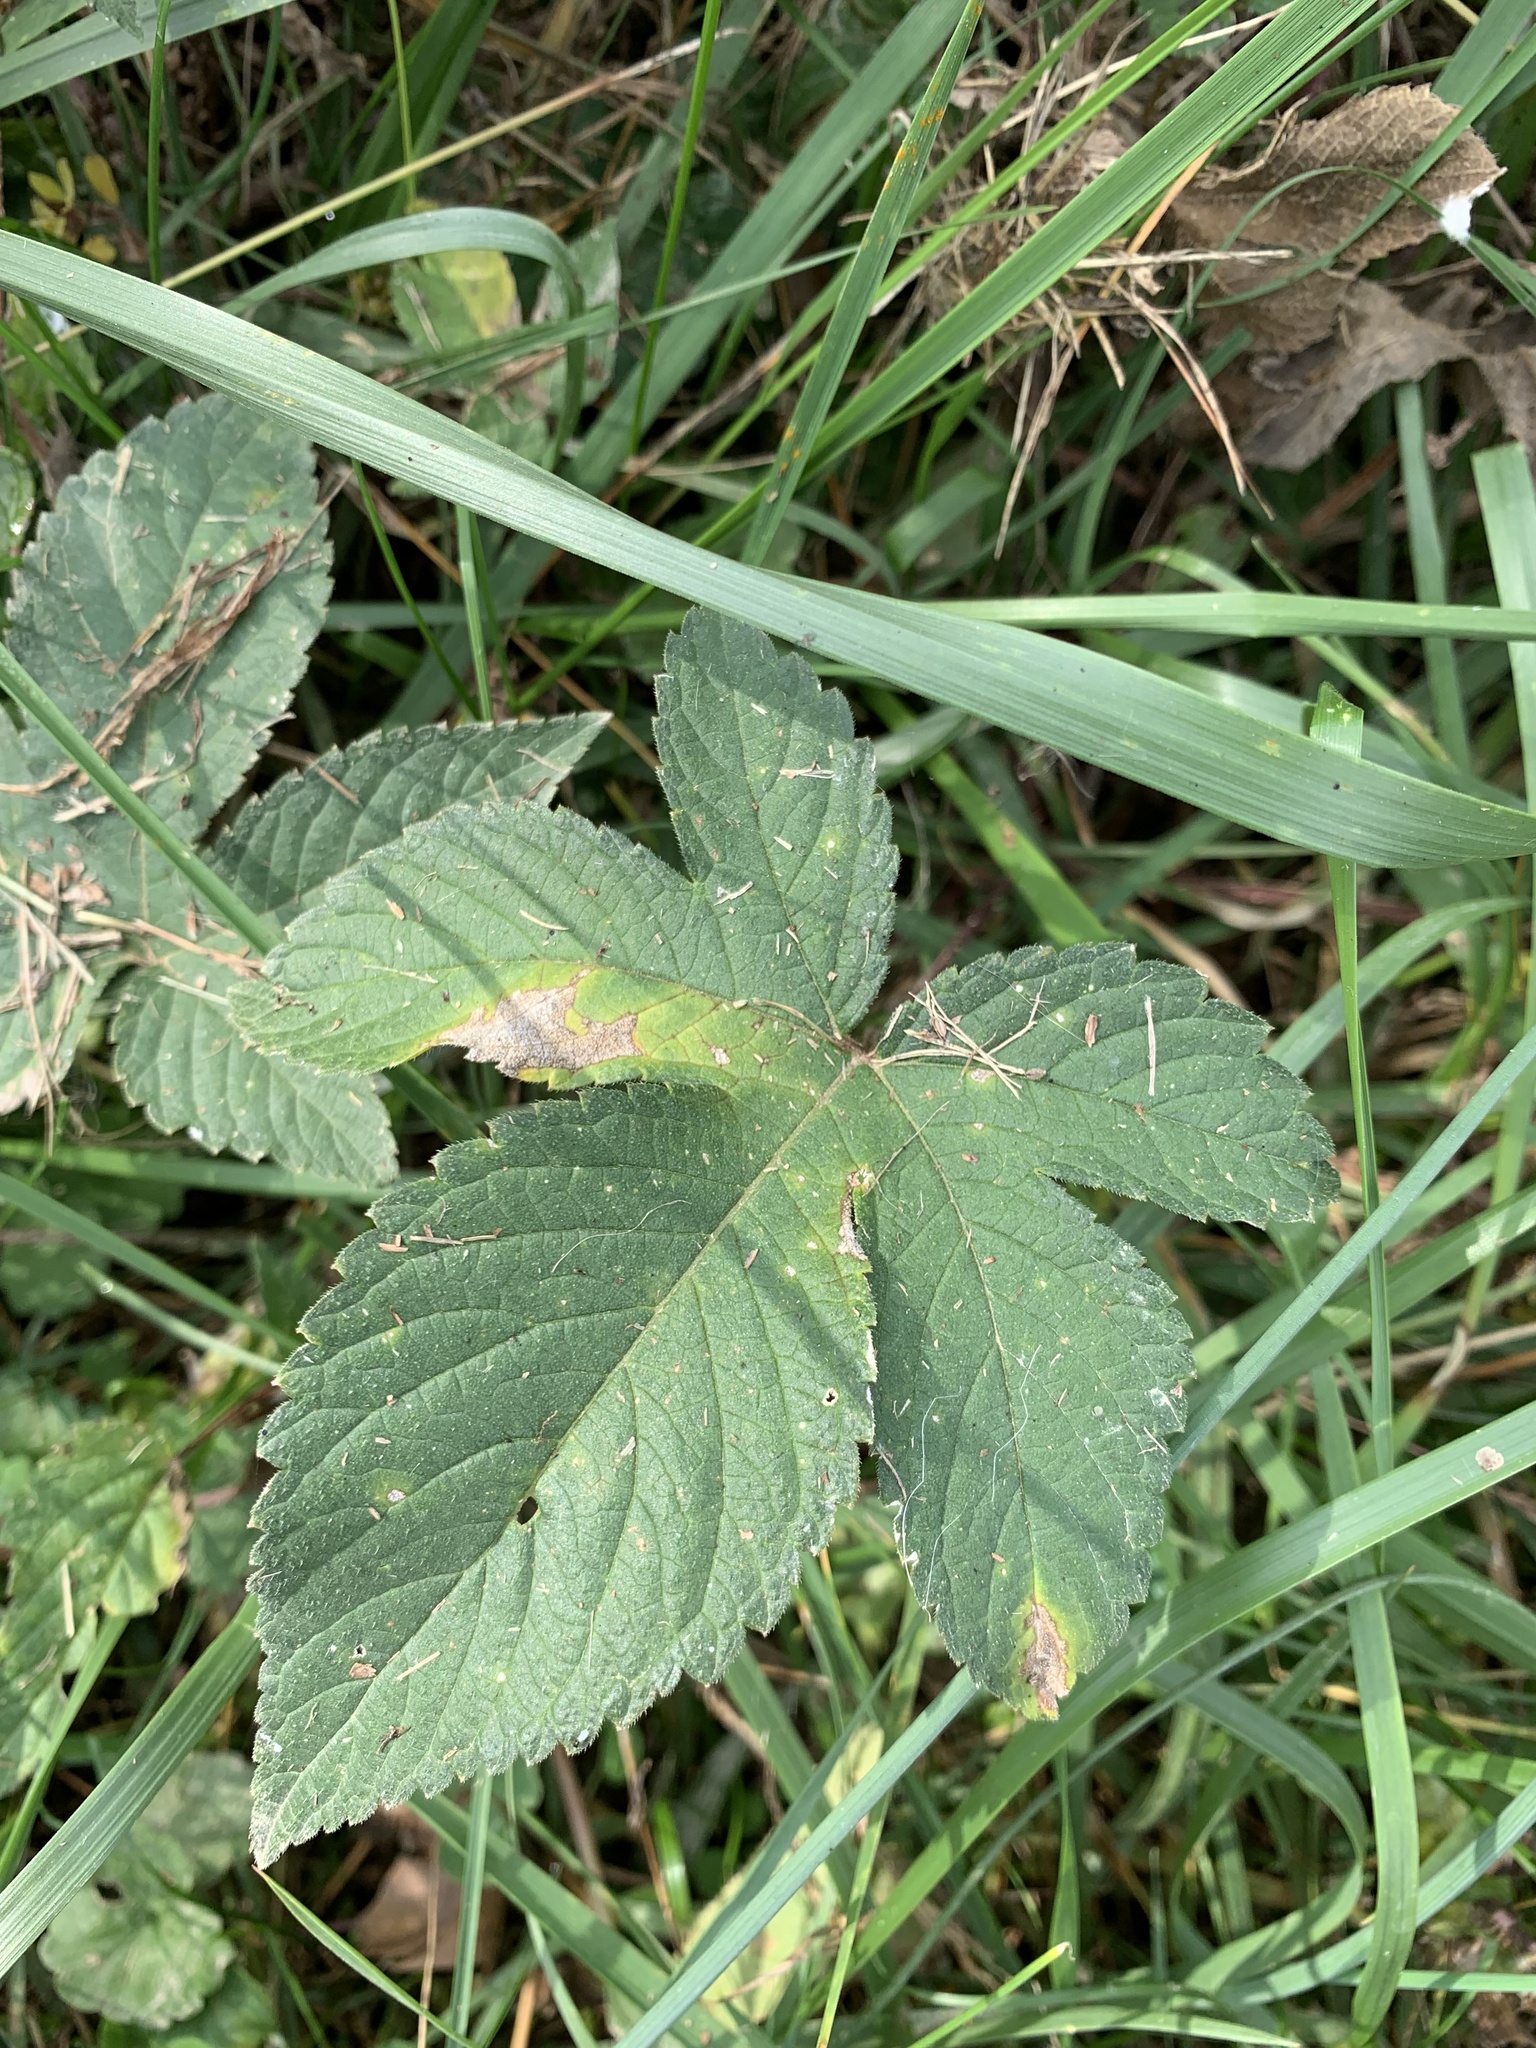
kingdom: Plantae
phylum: Tracheophyta
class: Magnoliopsida
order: Rosales
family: Cannabaceae
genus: Humulus
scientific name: Humulus scandens
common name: Japanese hop
